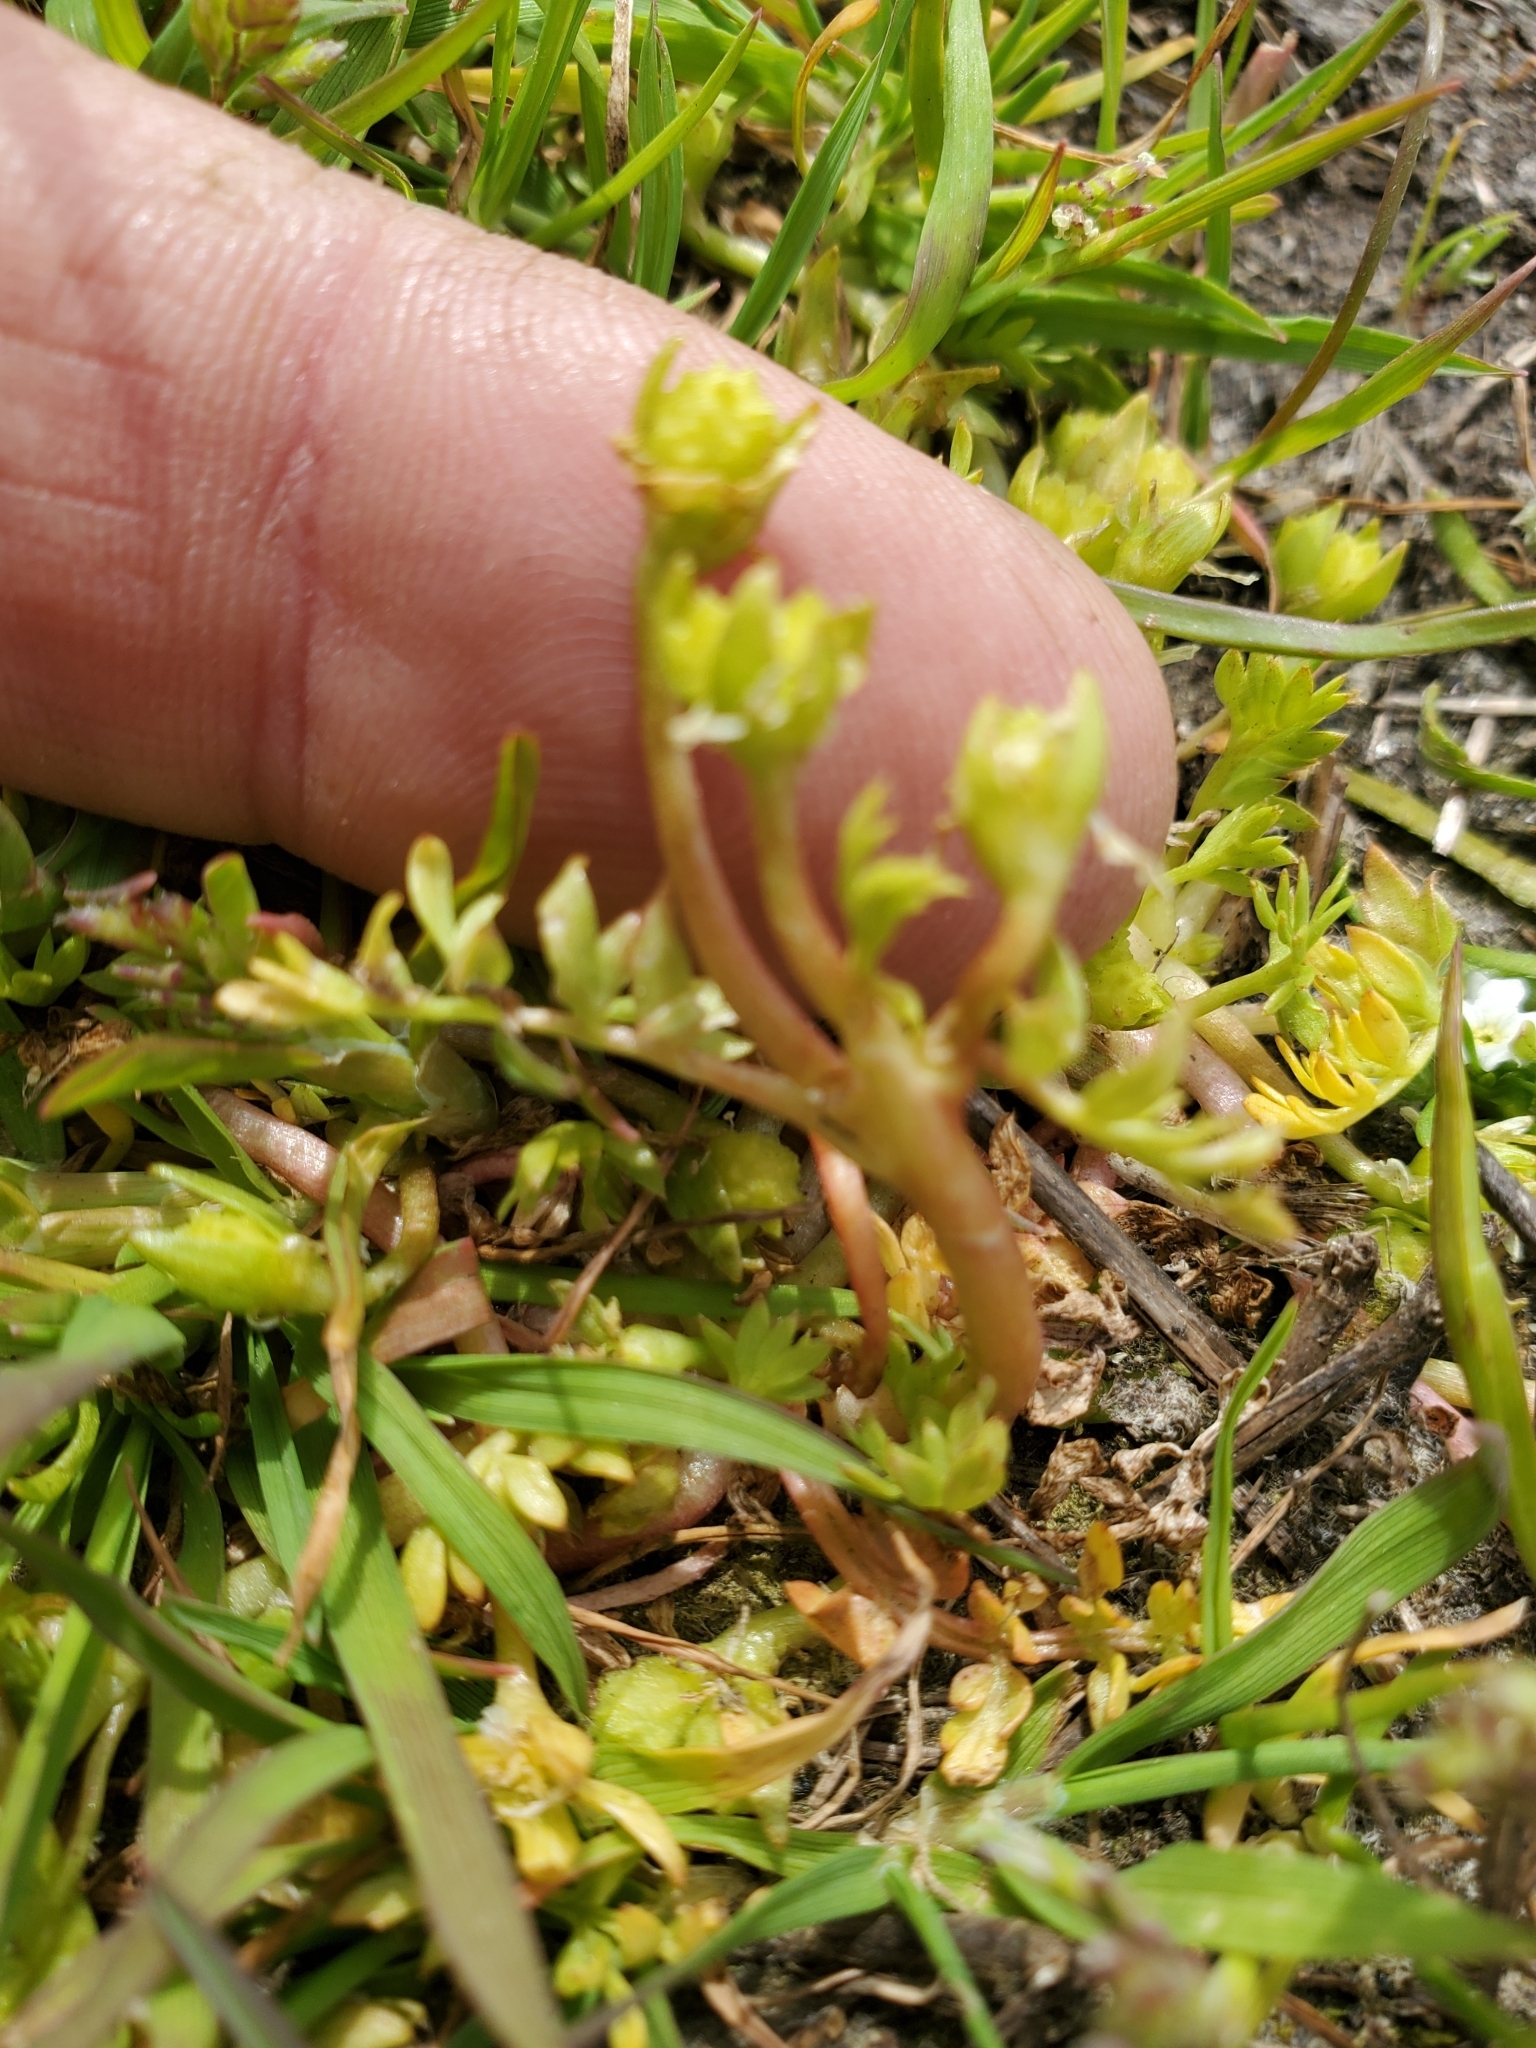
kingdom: Plantae
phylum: Tracheophyta
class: Magnoliopsida
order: Brassicales
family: Limnanthaceae
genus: Limnanthes
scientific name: Limnanthes macounii
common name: Macoun's meadowfoam
